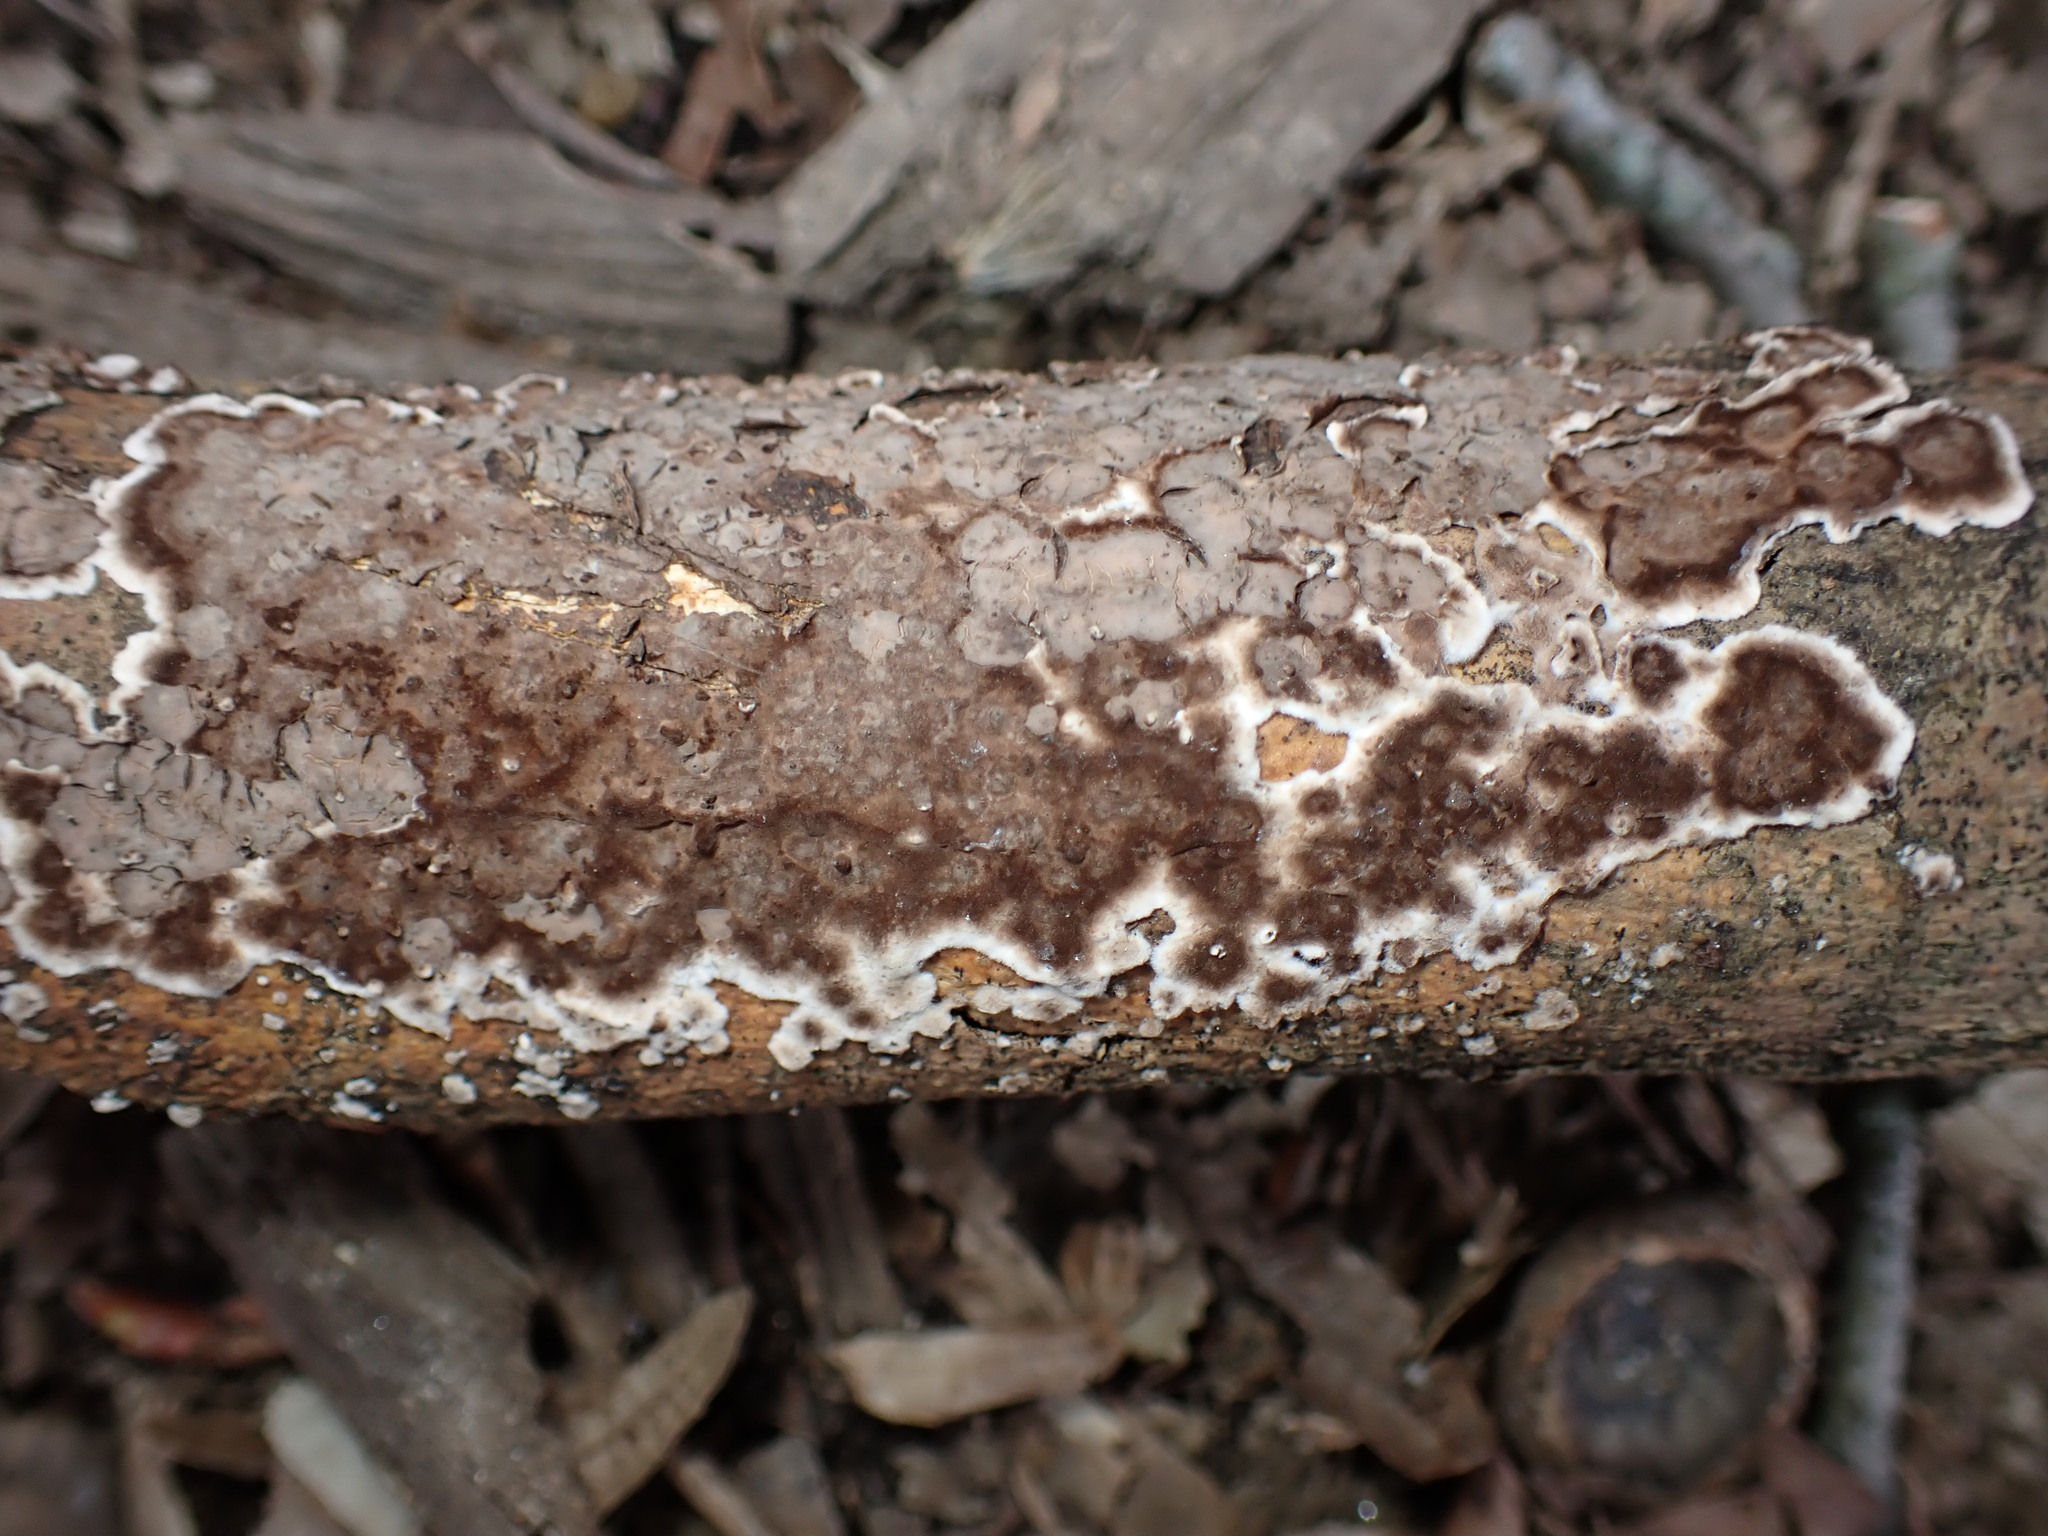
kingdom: Fungi
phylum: Basidiomycota
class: Agaricomycetes
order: Russulales
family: Peniophoraceae
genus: Peniophora
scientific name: Peniophora albobadia
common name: Giraffe spots
